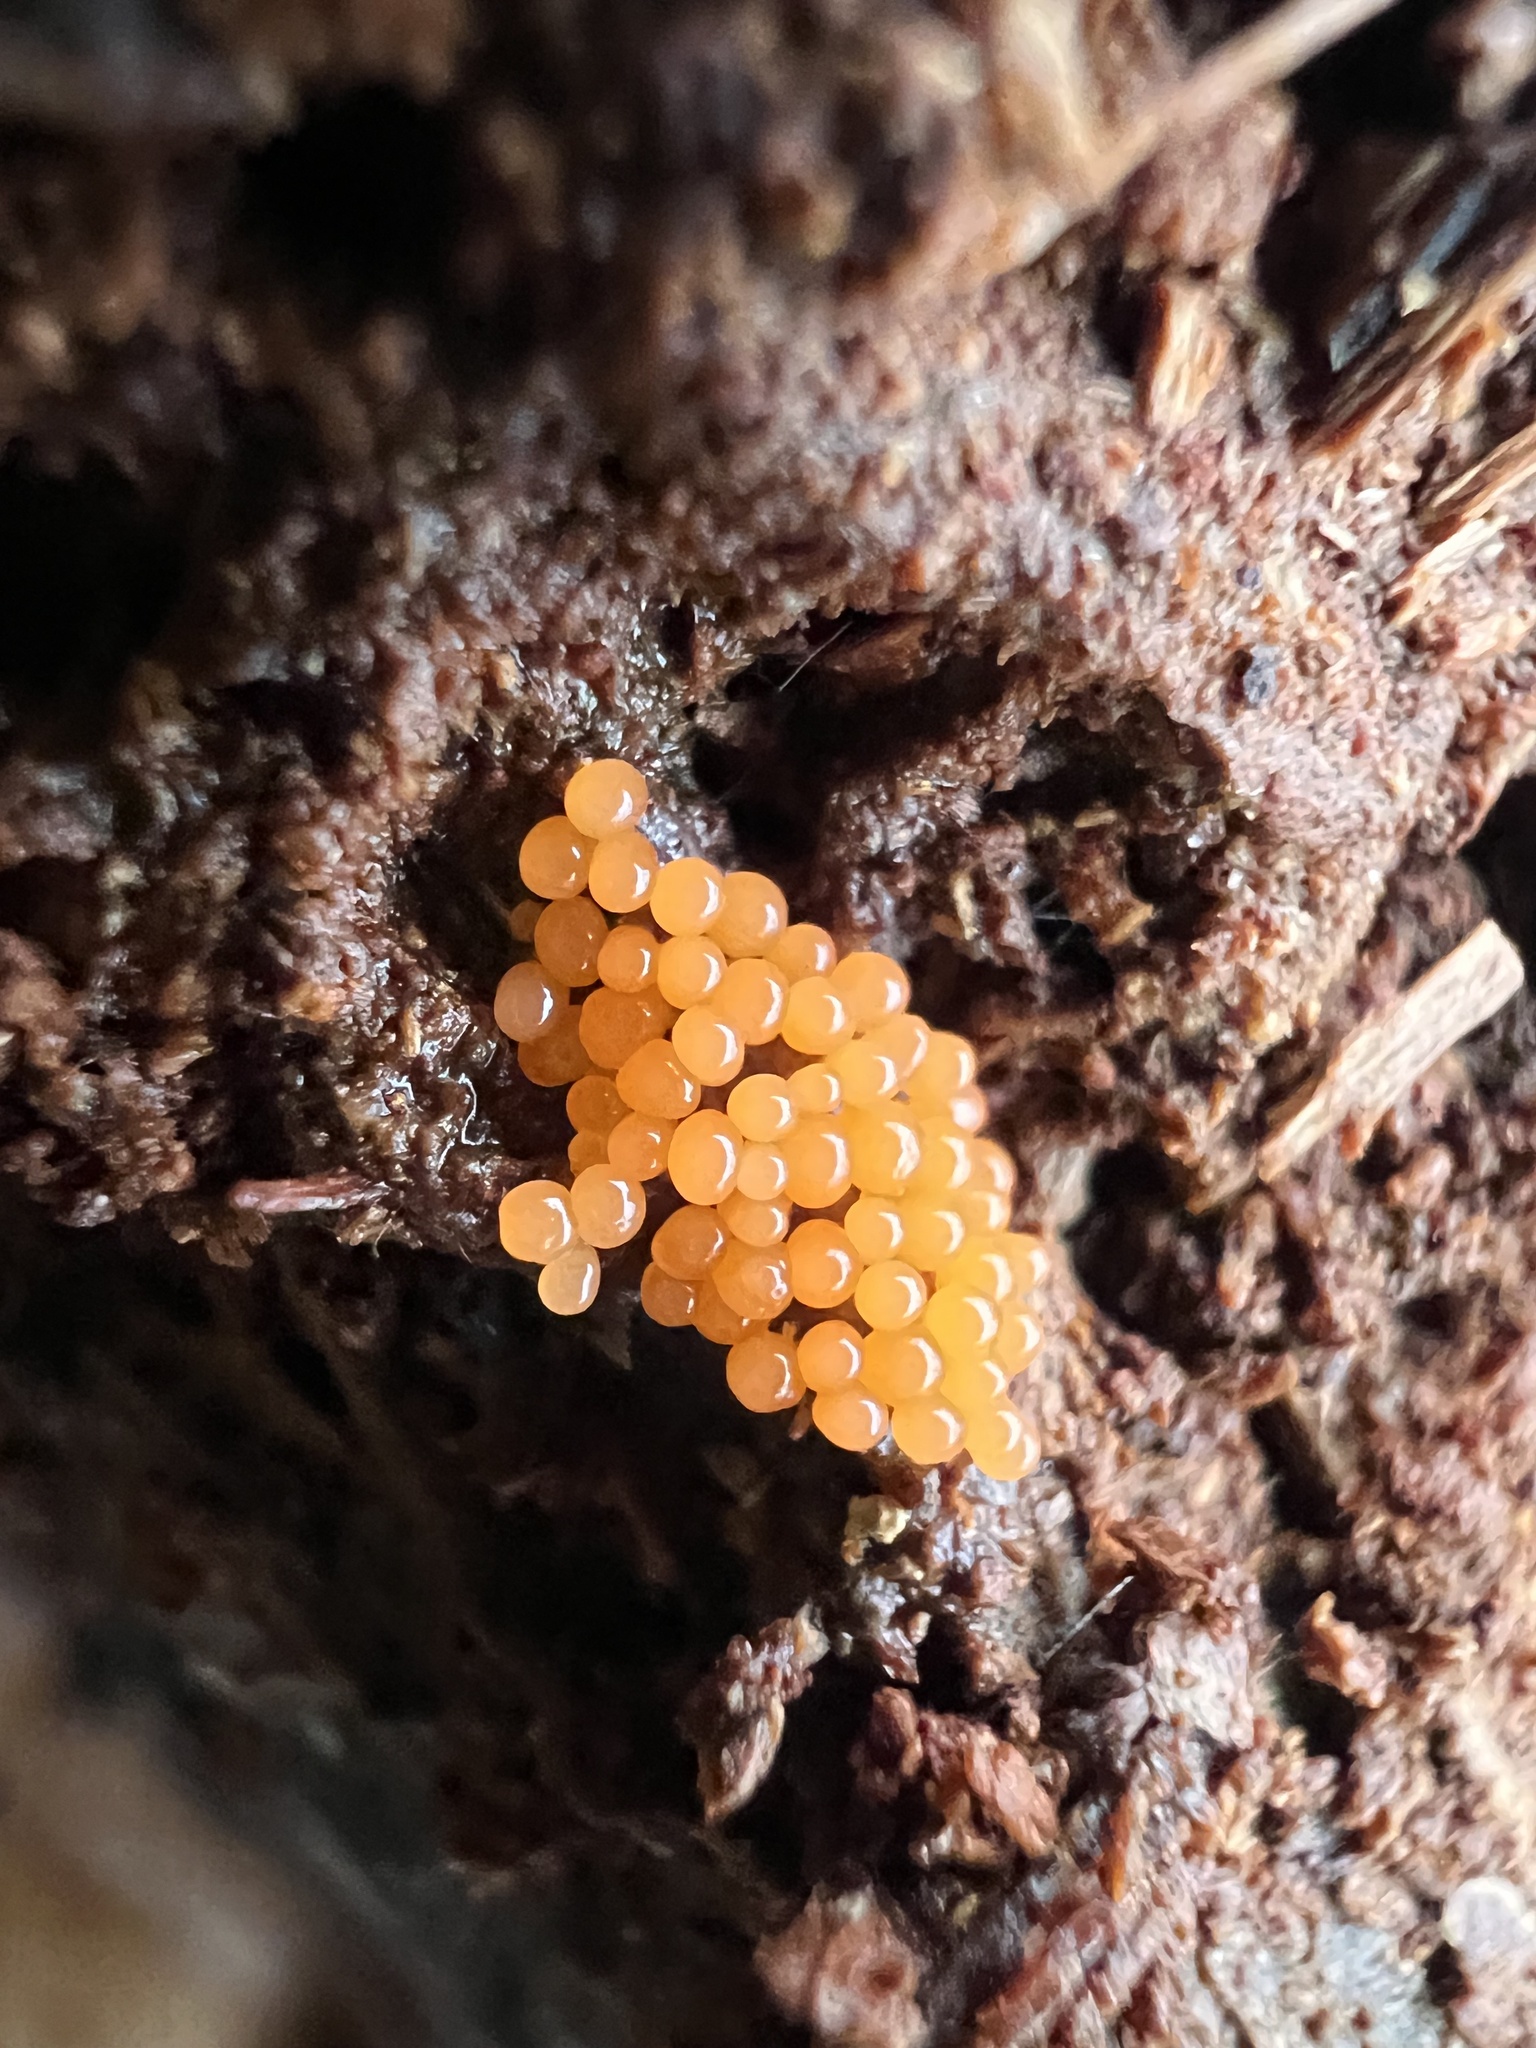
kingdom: Protozoa
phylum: Mycetozoa
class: Myxomycetes
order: Trichiales
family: Arcyriaceae
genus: Hemitrichia
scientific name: Hemitrichia decipiens
